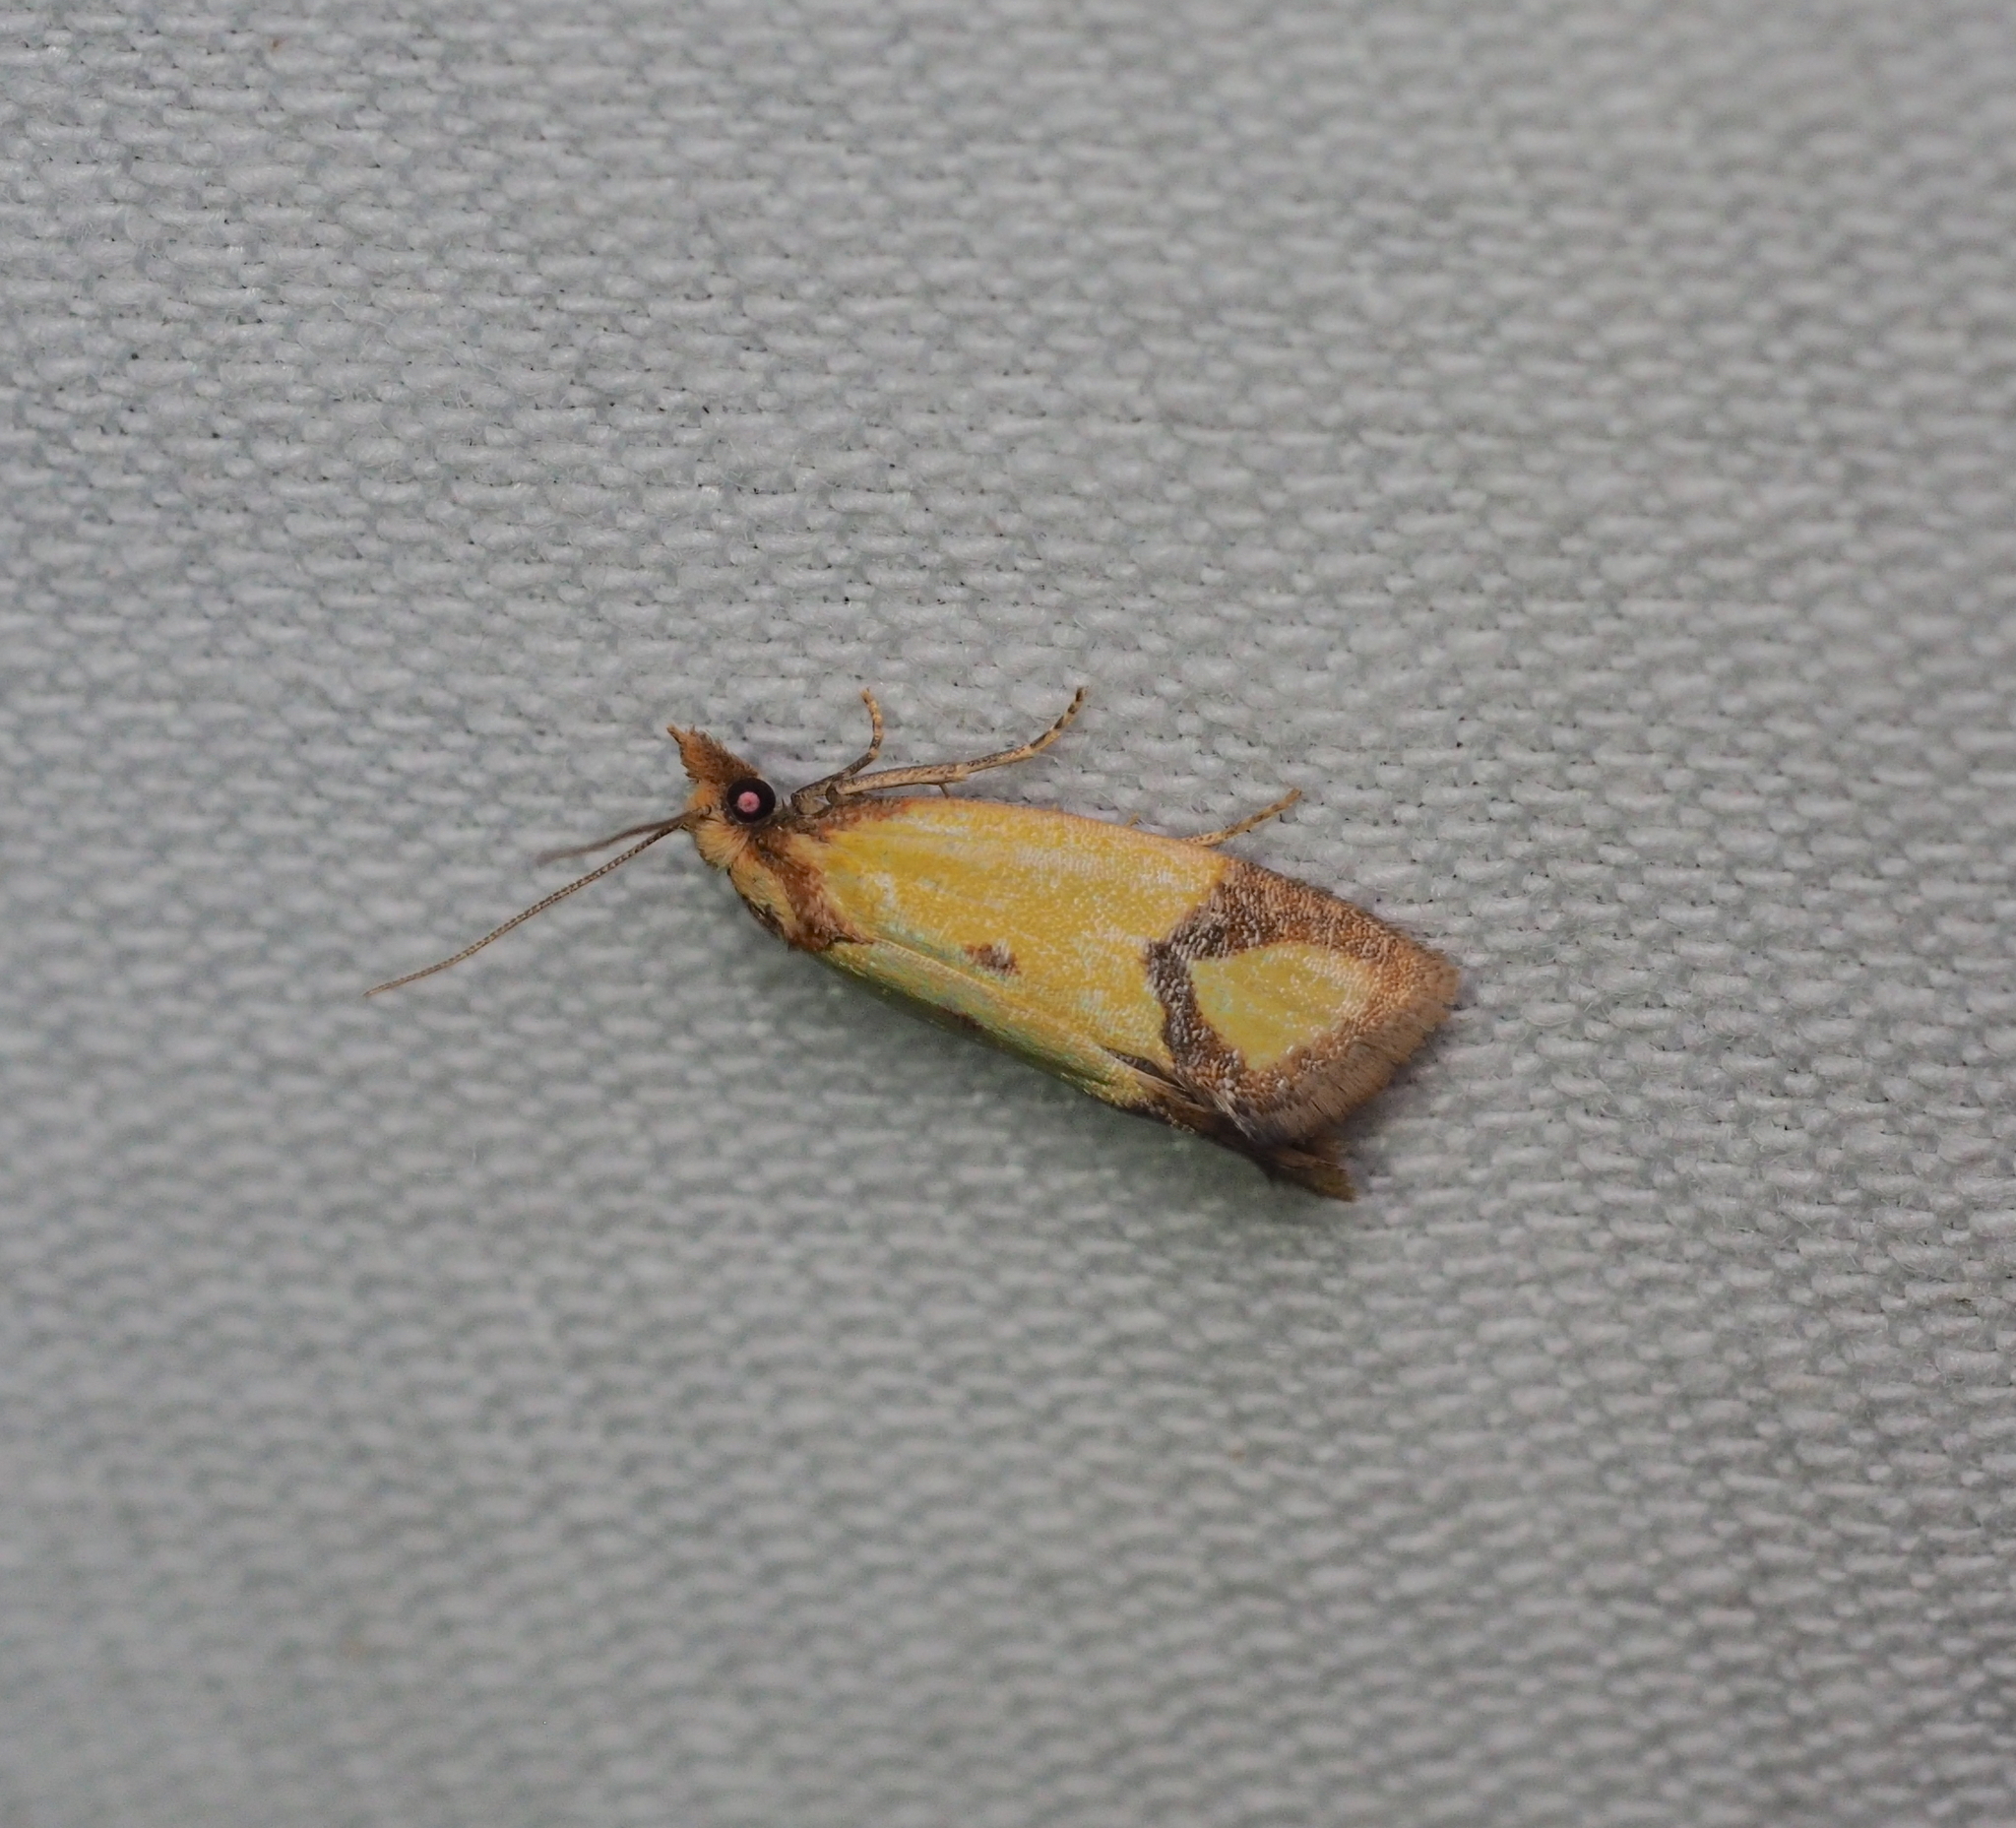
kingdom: Animalia
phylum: Arthropoda
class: Insecta
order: Lepidoptera
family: Tortricidae
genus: Agapeta
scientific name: Agapeta zoegana
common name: Sulfur knapweed root moth
